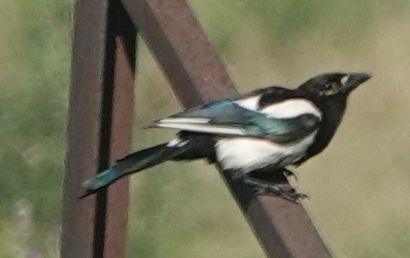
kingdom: Animalia
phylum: Chordata
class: Aves
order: Passeriformes
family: Corvidae
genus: Pica
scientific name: Pica pica
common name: Eurasian magpie
